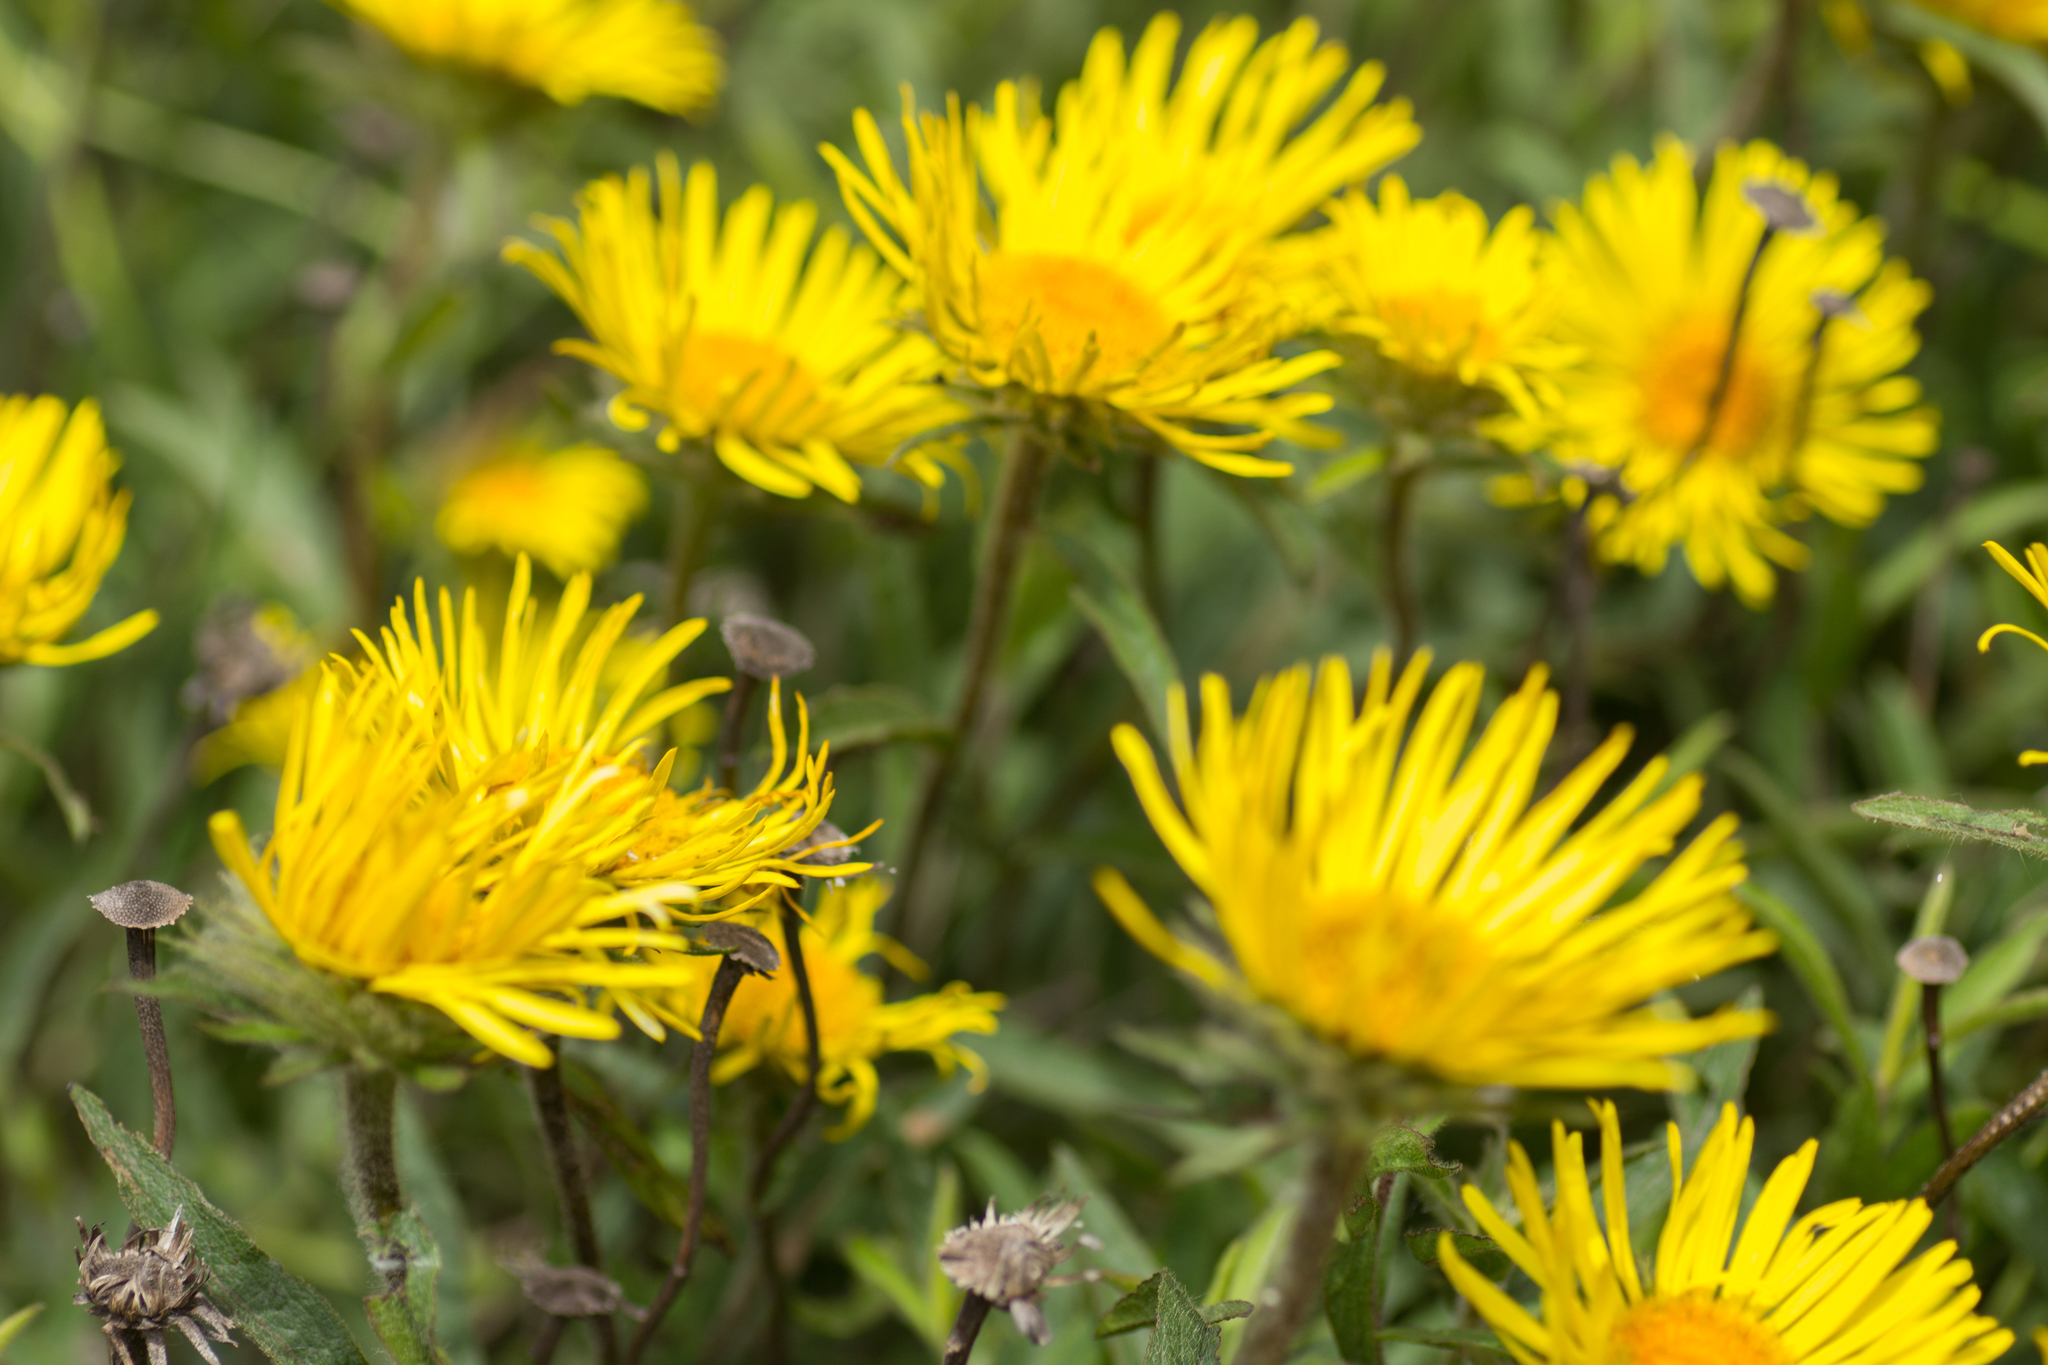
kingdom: Plantae
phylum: Tracheophyta
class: Magnoliopsida
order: Asterales
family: Asteraceae
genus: Pentanema
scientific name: Pentanema hirtum
